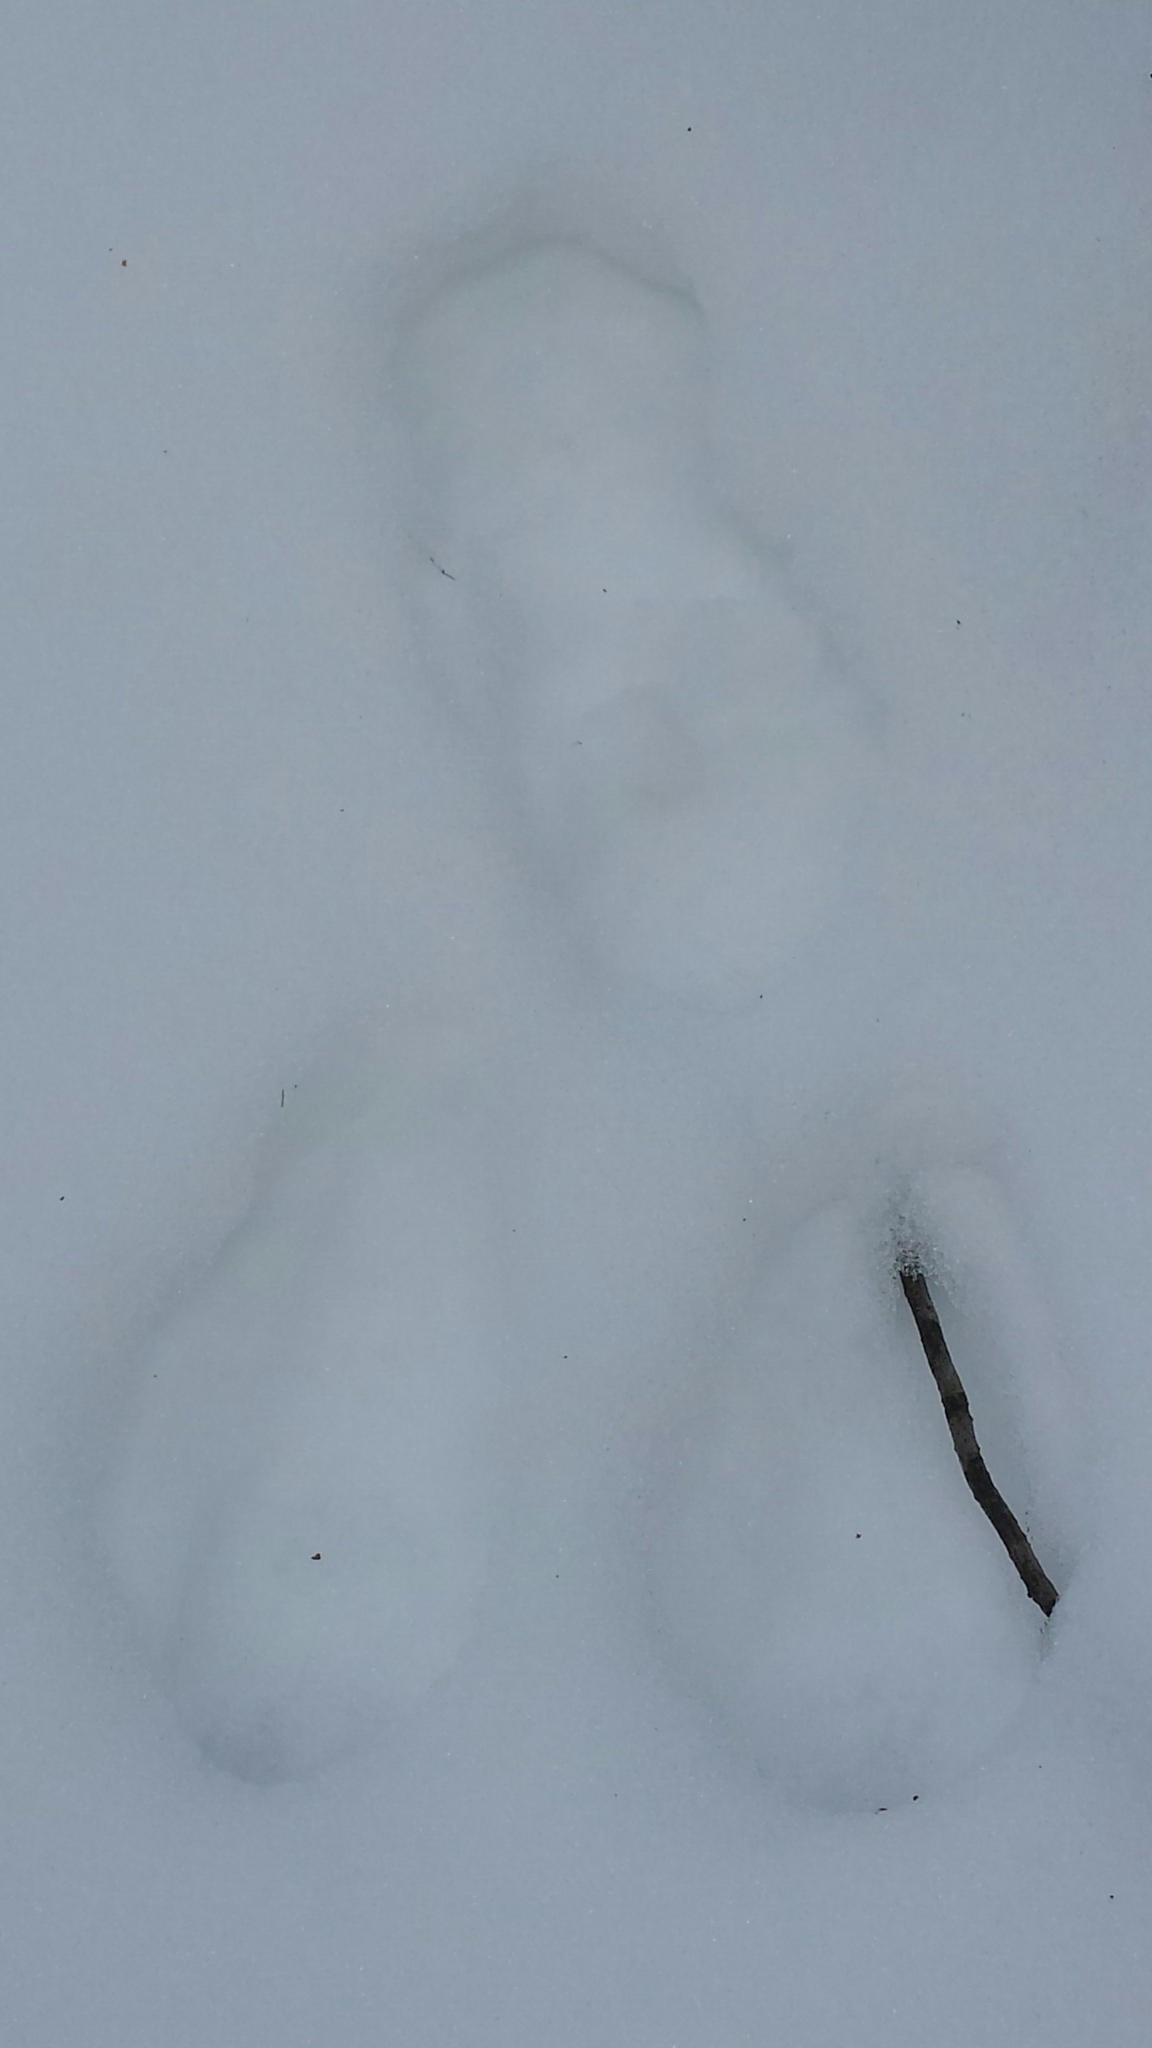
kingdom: Animalia
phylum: Chordata
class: Mammalia
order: Lagomorpha
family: Leporidae
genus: Lepus
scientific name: Lepus americanus
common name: Snowshoe hare
